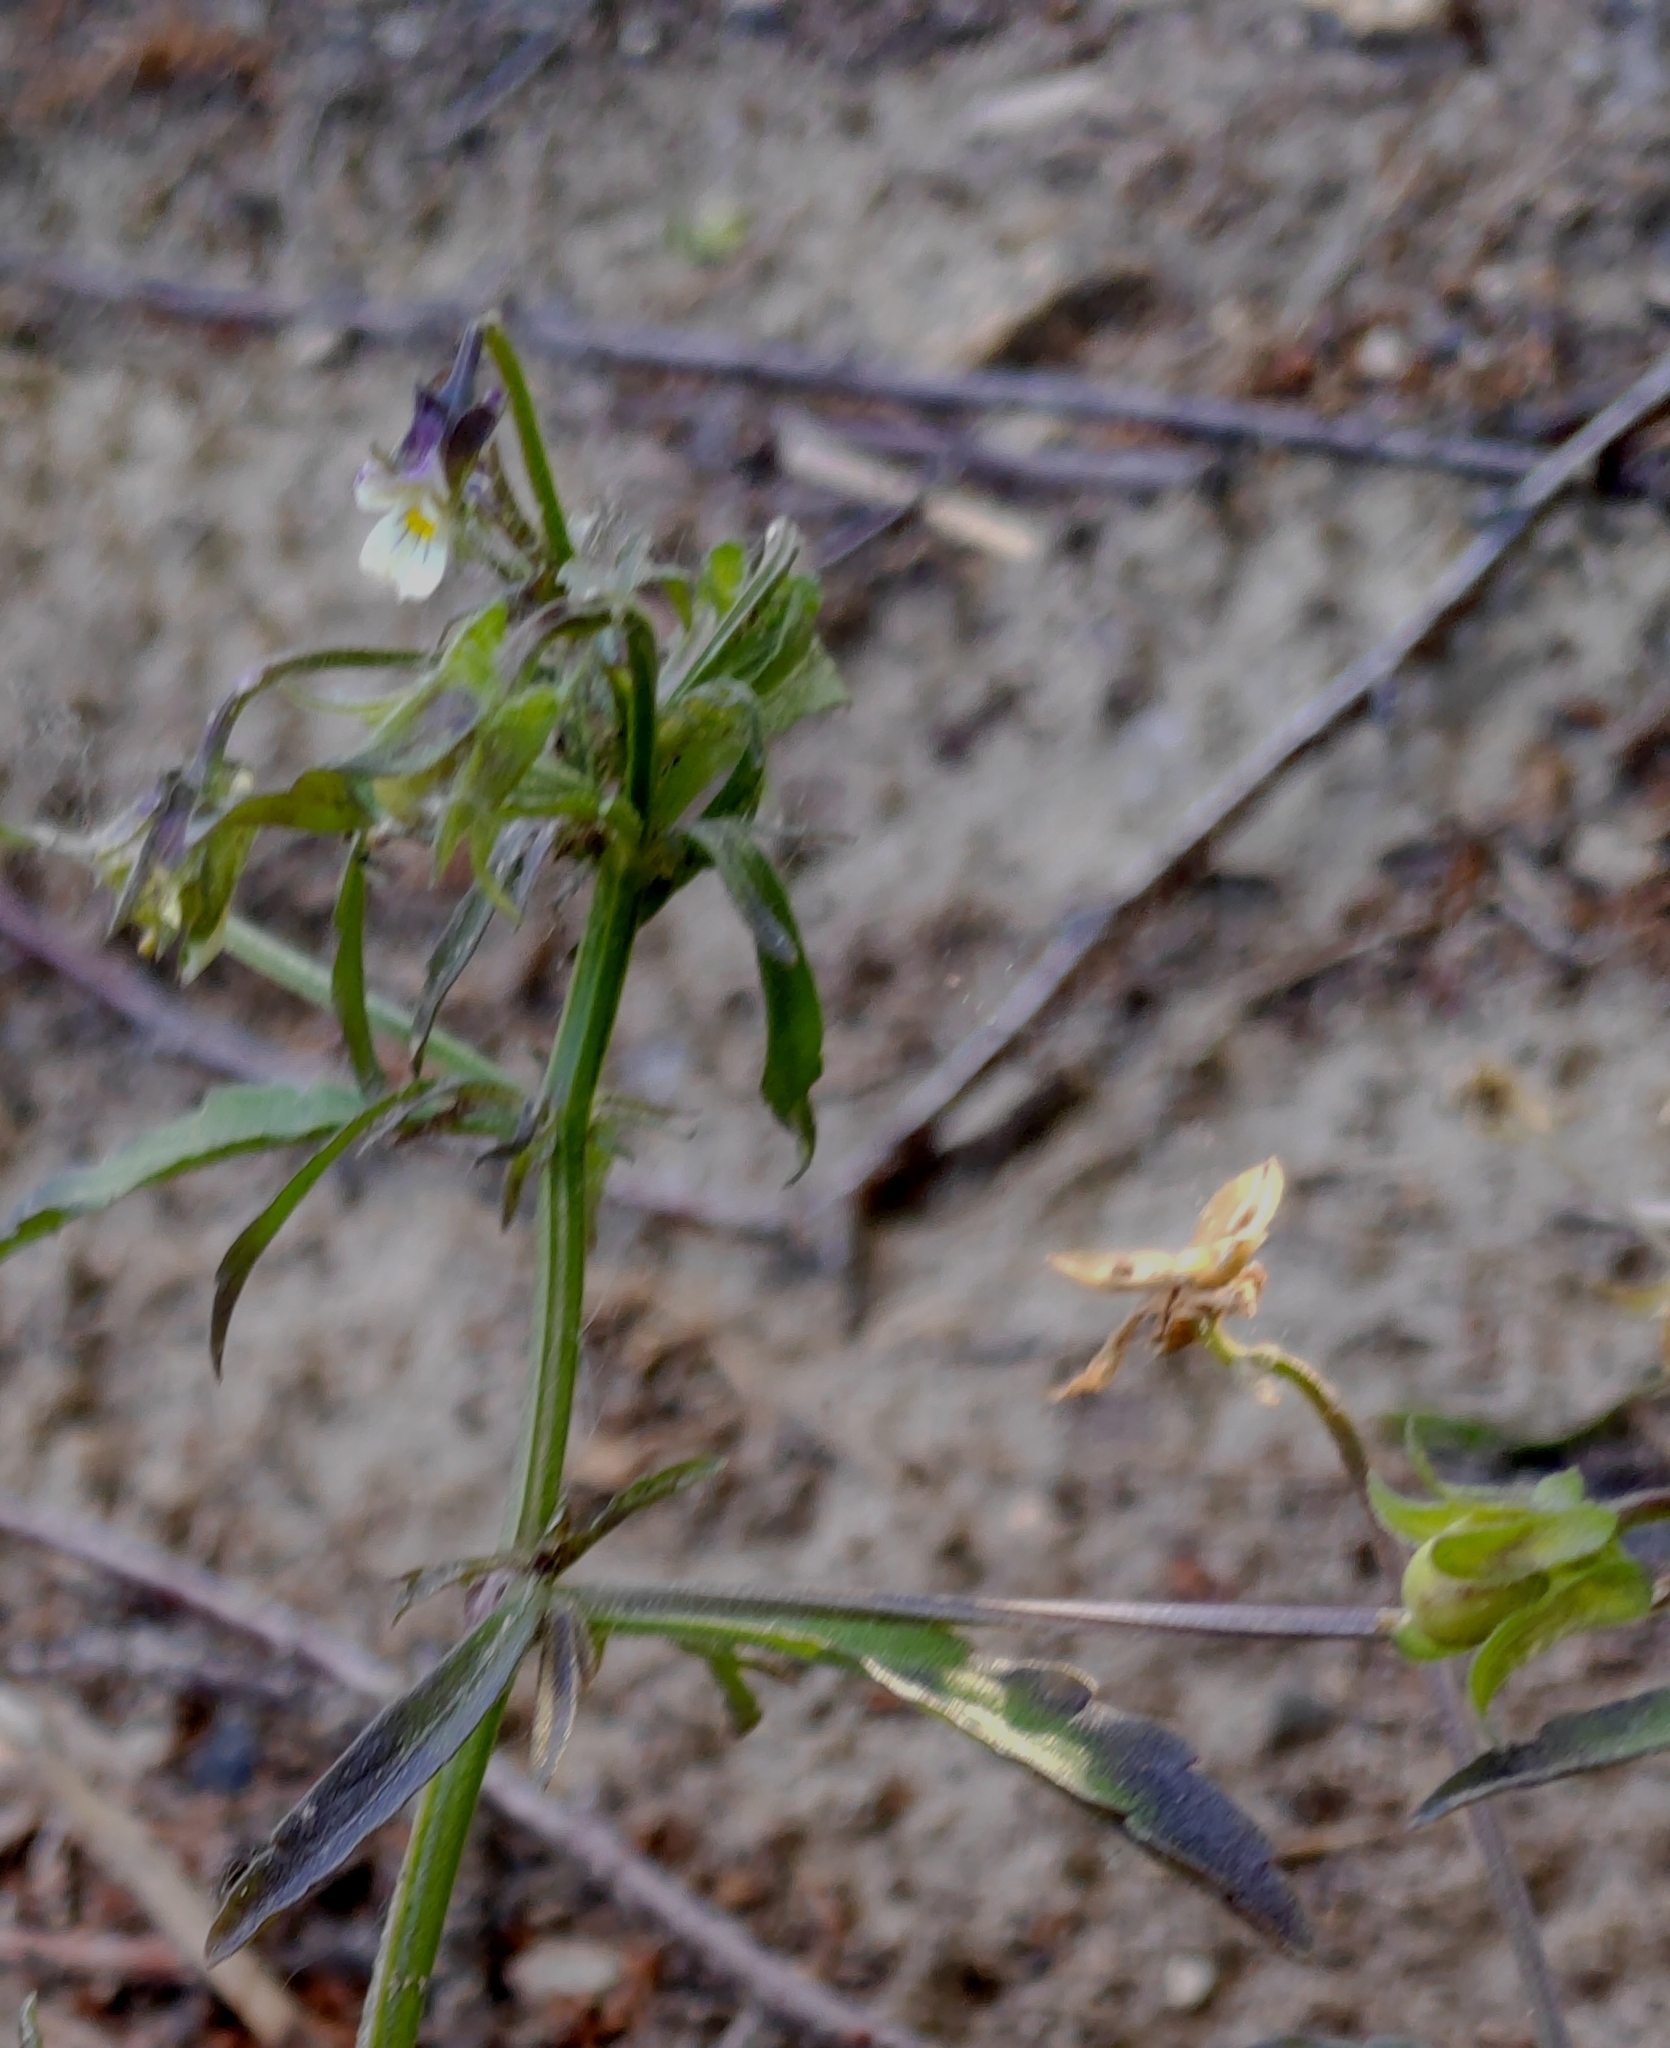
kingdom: Plantae
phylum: Tracheophyta
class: Magnoliopsida
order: Malpighiales
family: Violaceae
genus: Viola
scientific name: Viola arvensis
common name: Field pansy
